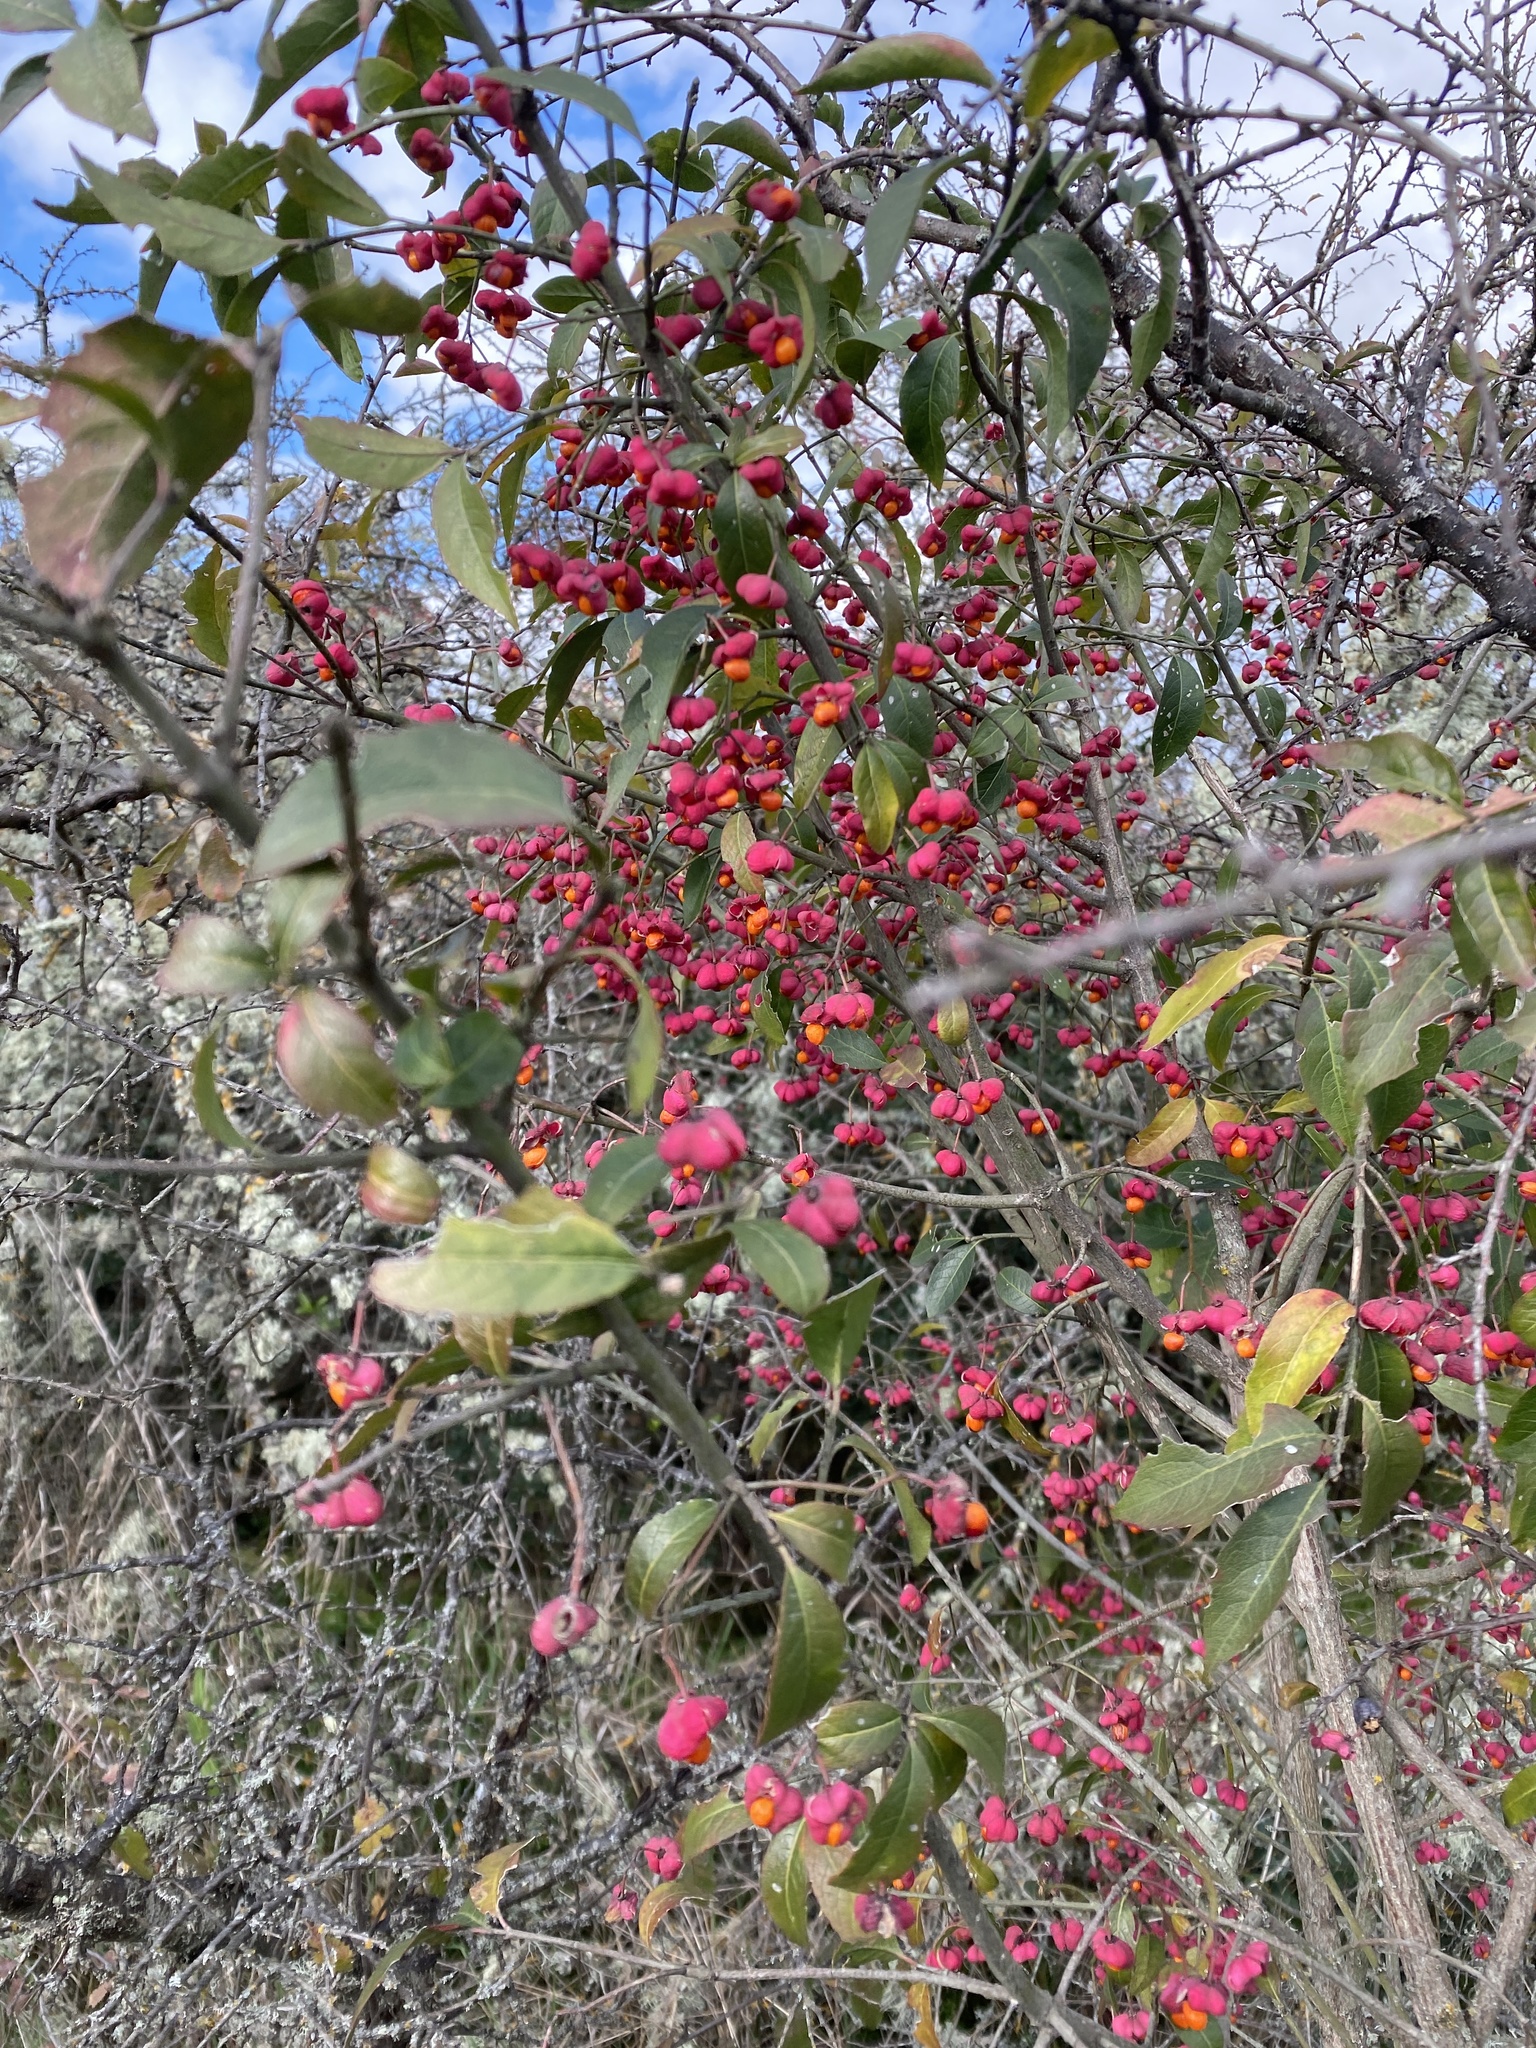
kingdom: Plantae
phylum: Tracheophyta
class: Magnoliopsida
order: Celastrales
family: Celastraceae
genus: Euonymus
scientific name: Euonymus europaeus
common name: Spindle
